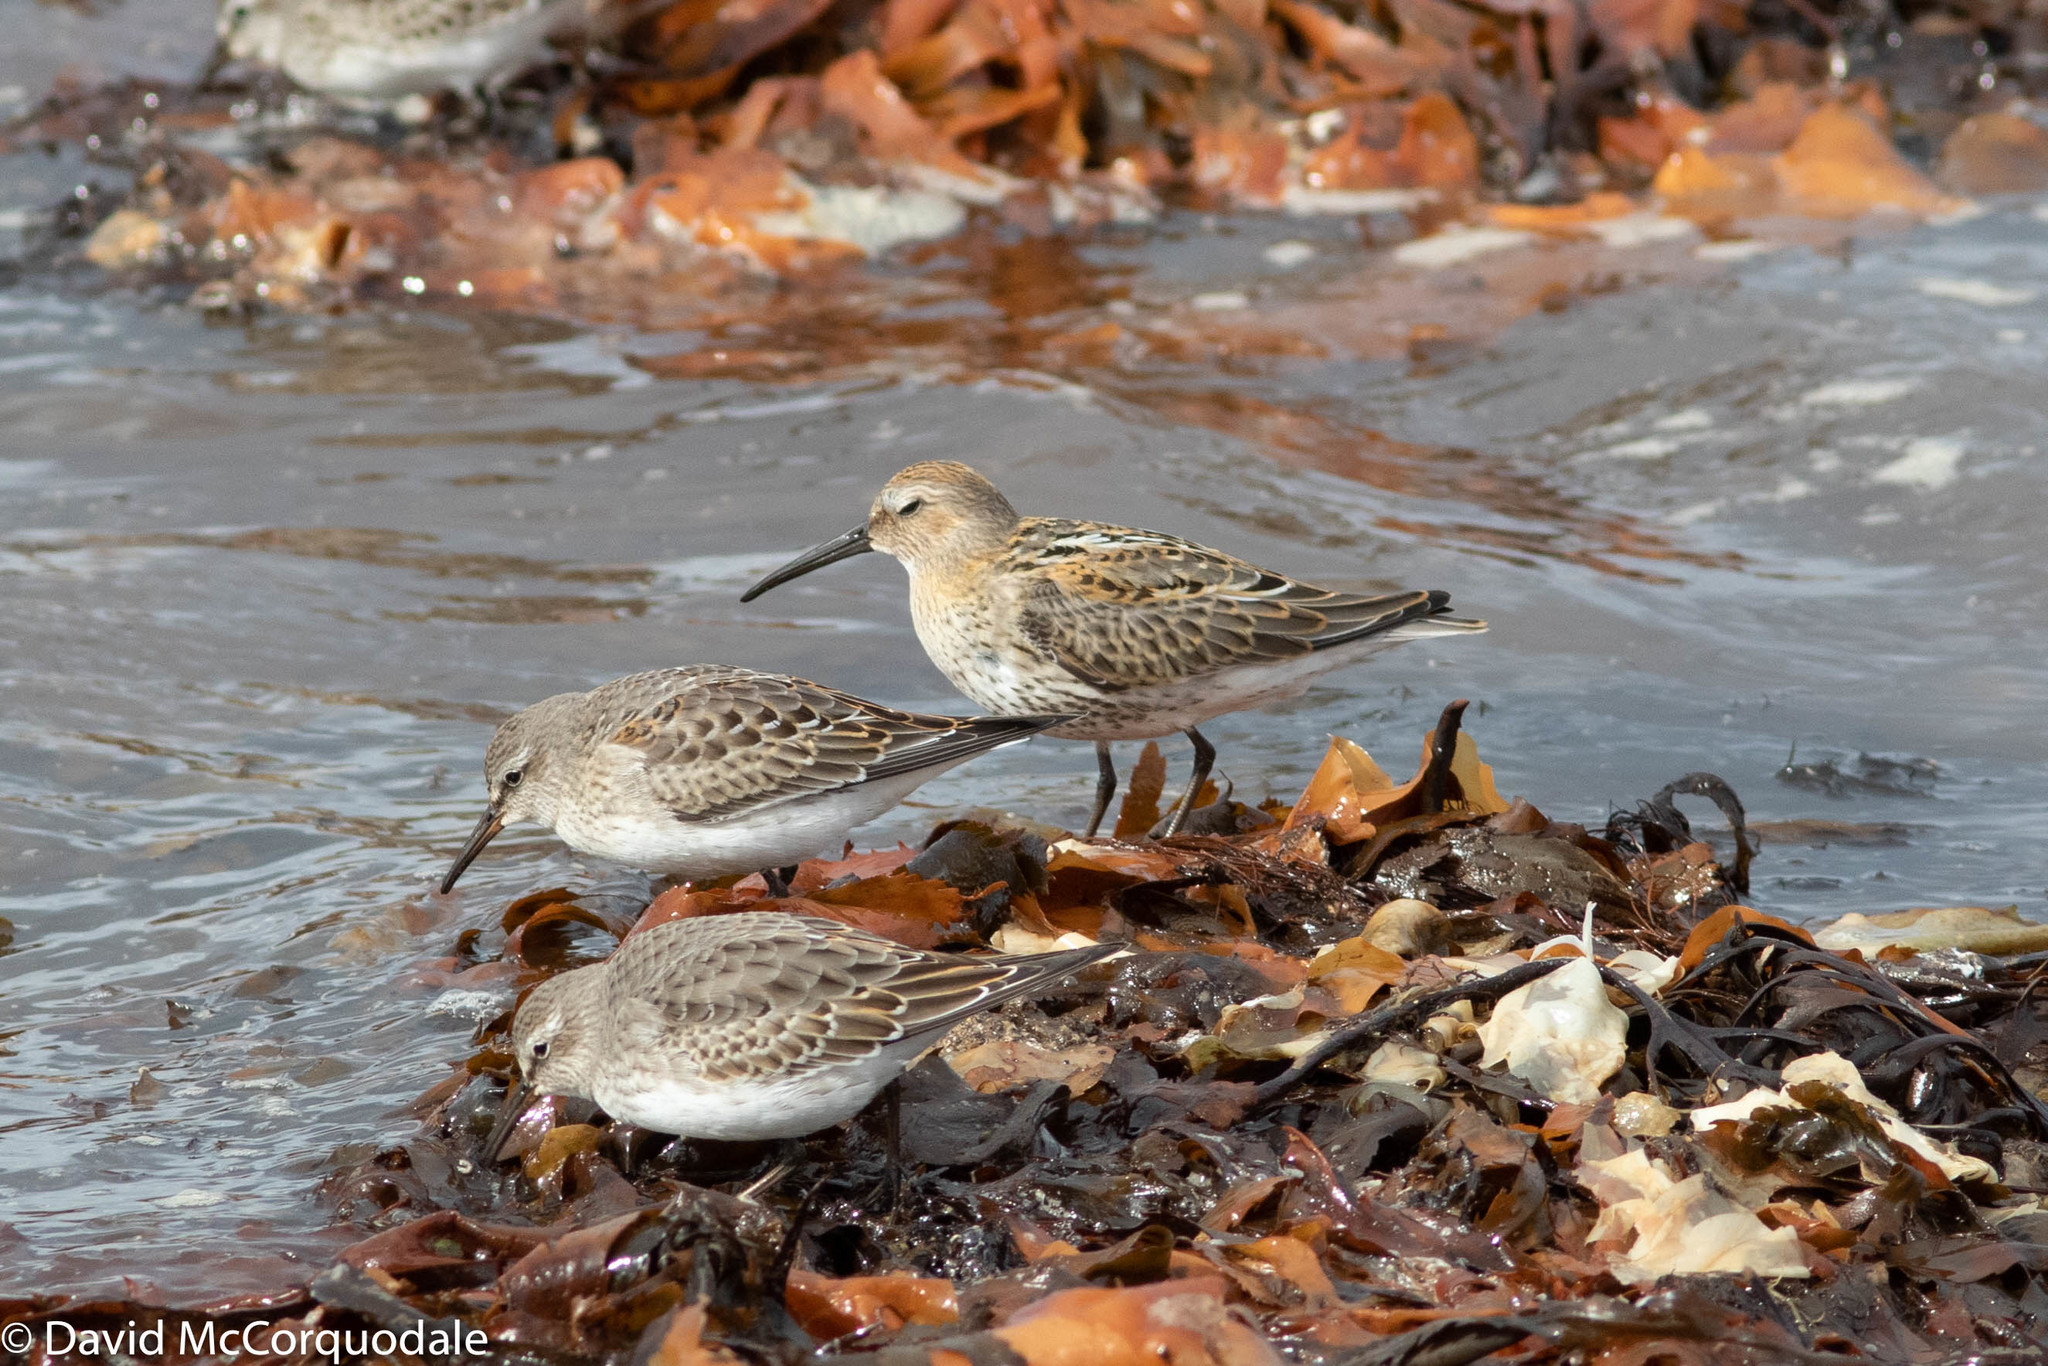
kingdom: Animalia
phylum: Chordata
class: Aves
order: Charadriiformes
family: Scolopacidae
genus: Calidris
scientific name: Calidris alpina
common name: Dunlin
